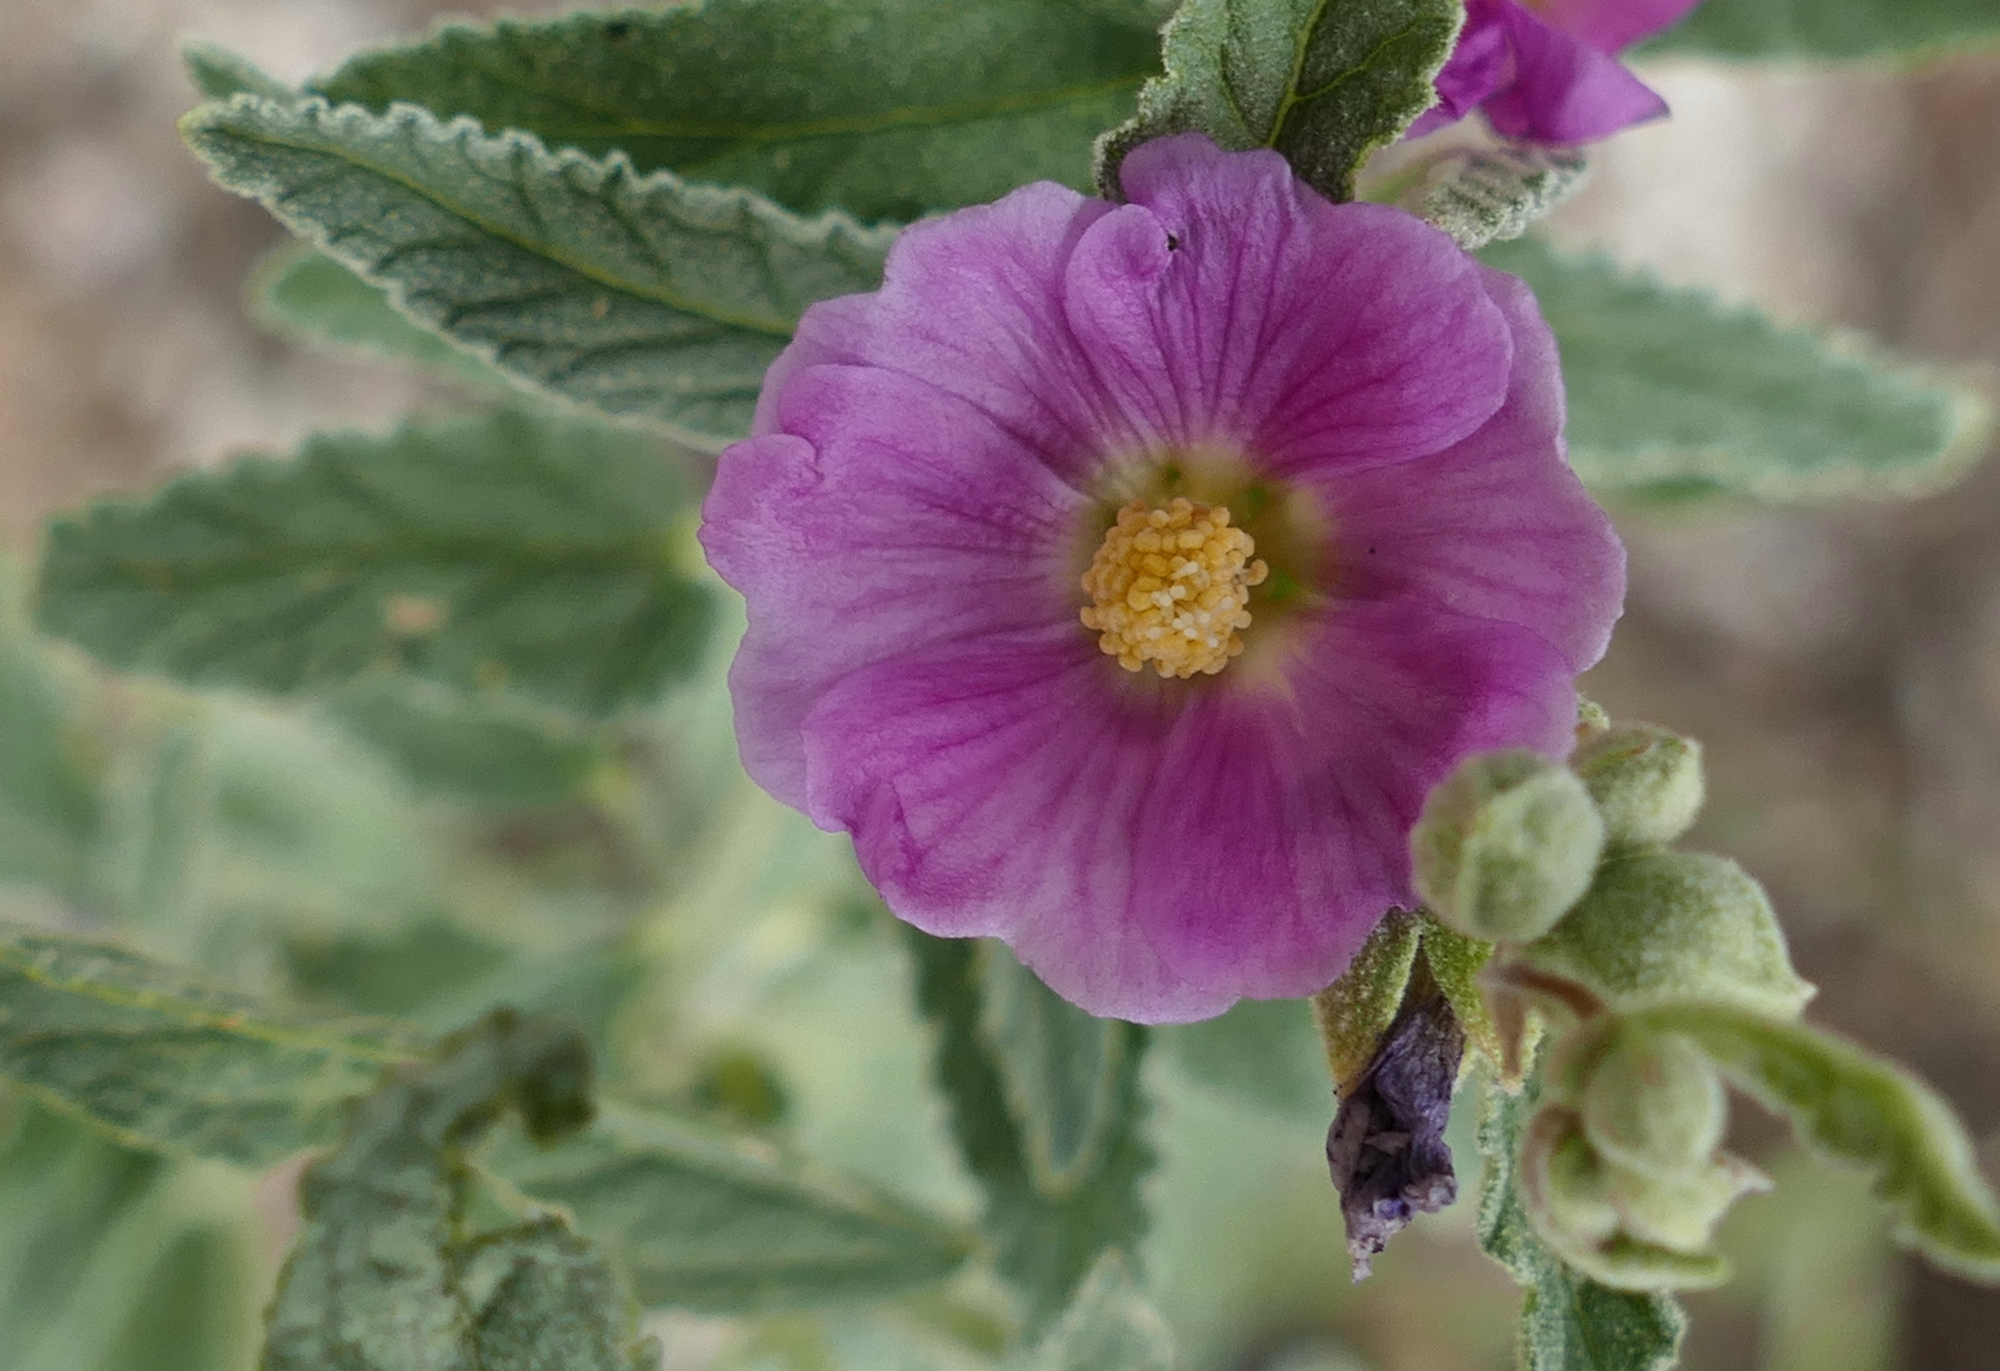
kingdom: Plantae
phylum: Tracheophyta
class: Magnoliopsida
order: Malvales
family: Malvaceae
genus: Sphaeralcea
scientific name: Sphaeralcea angustifolia
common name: Copper globe-mallow
